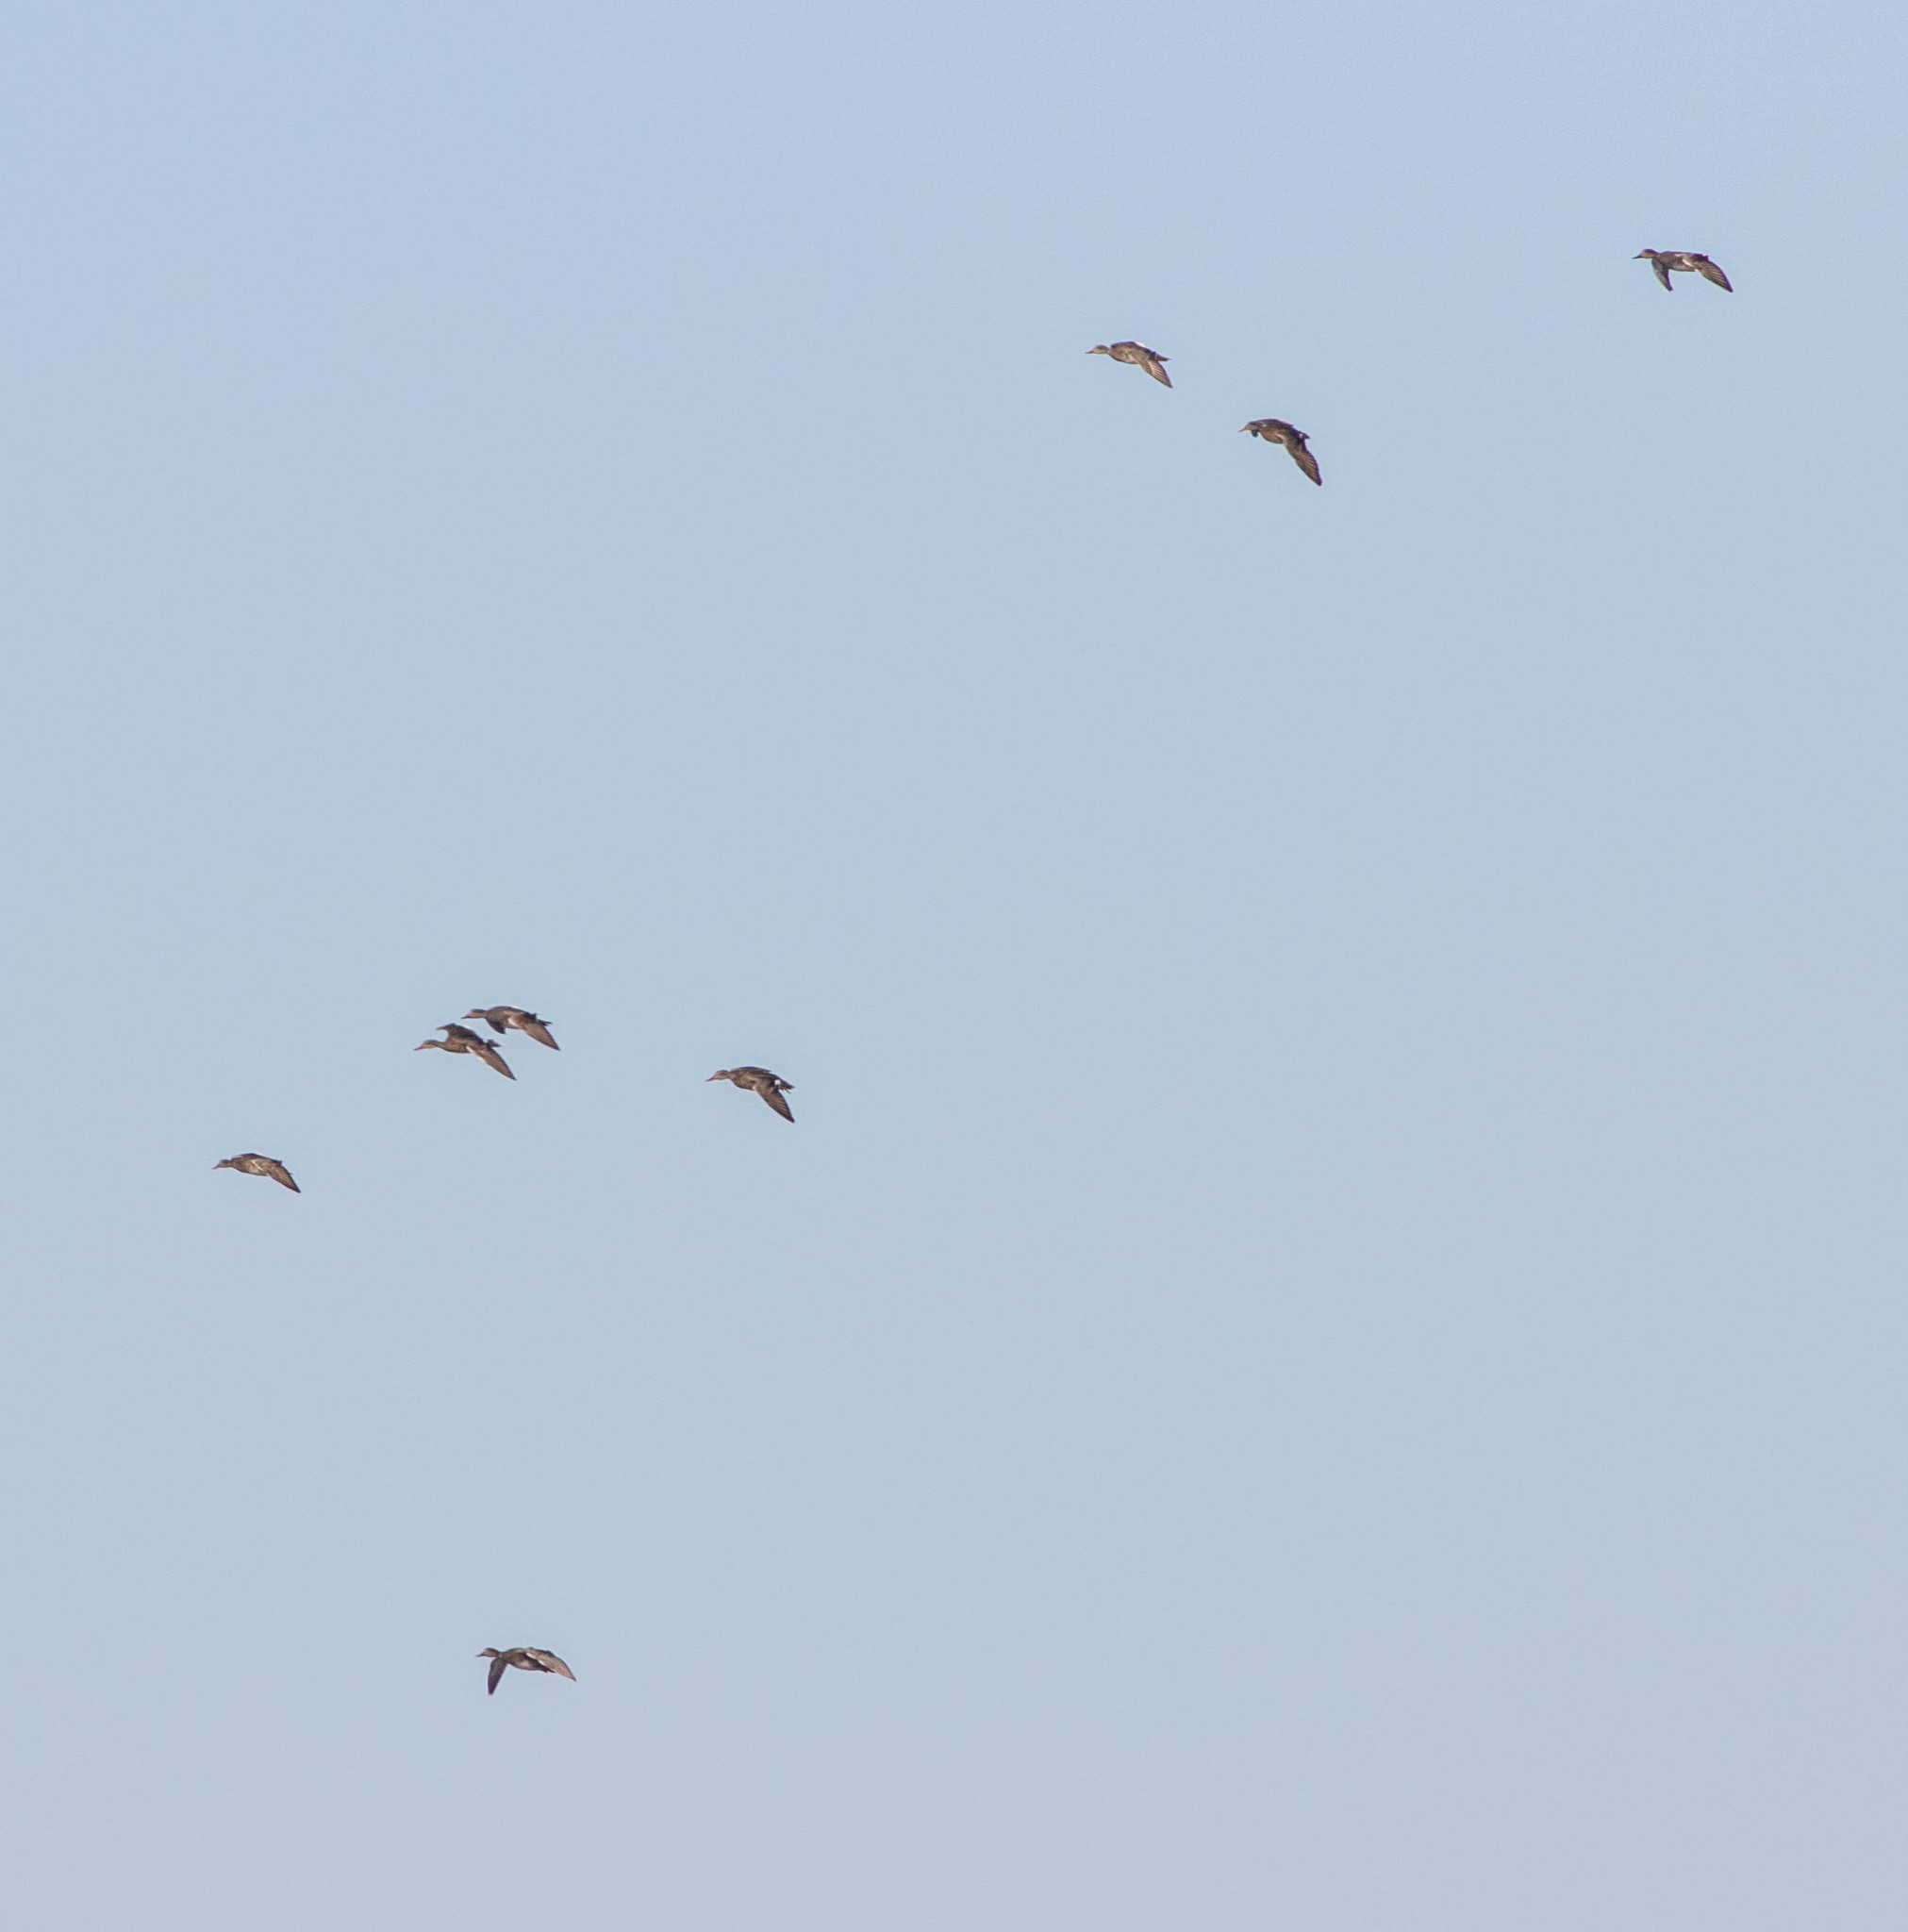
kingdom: Animalia
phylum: Chordata
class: Aves
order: Anseriformes
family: Anatidae
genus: Mareca
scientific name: Mareca strepera
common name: Gadwall
